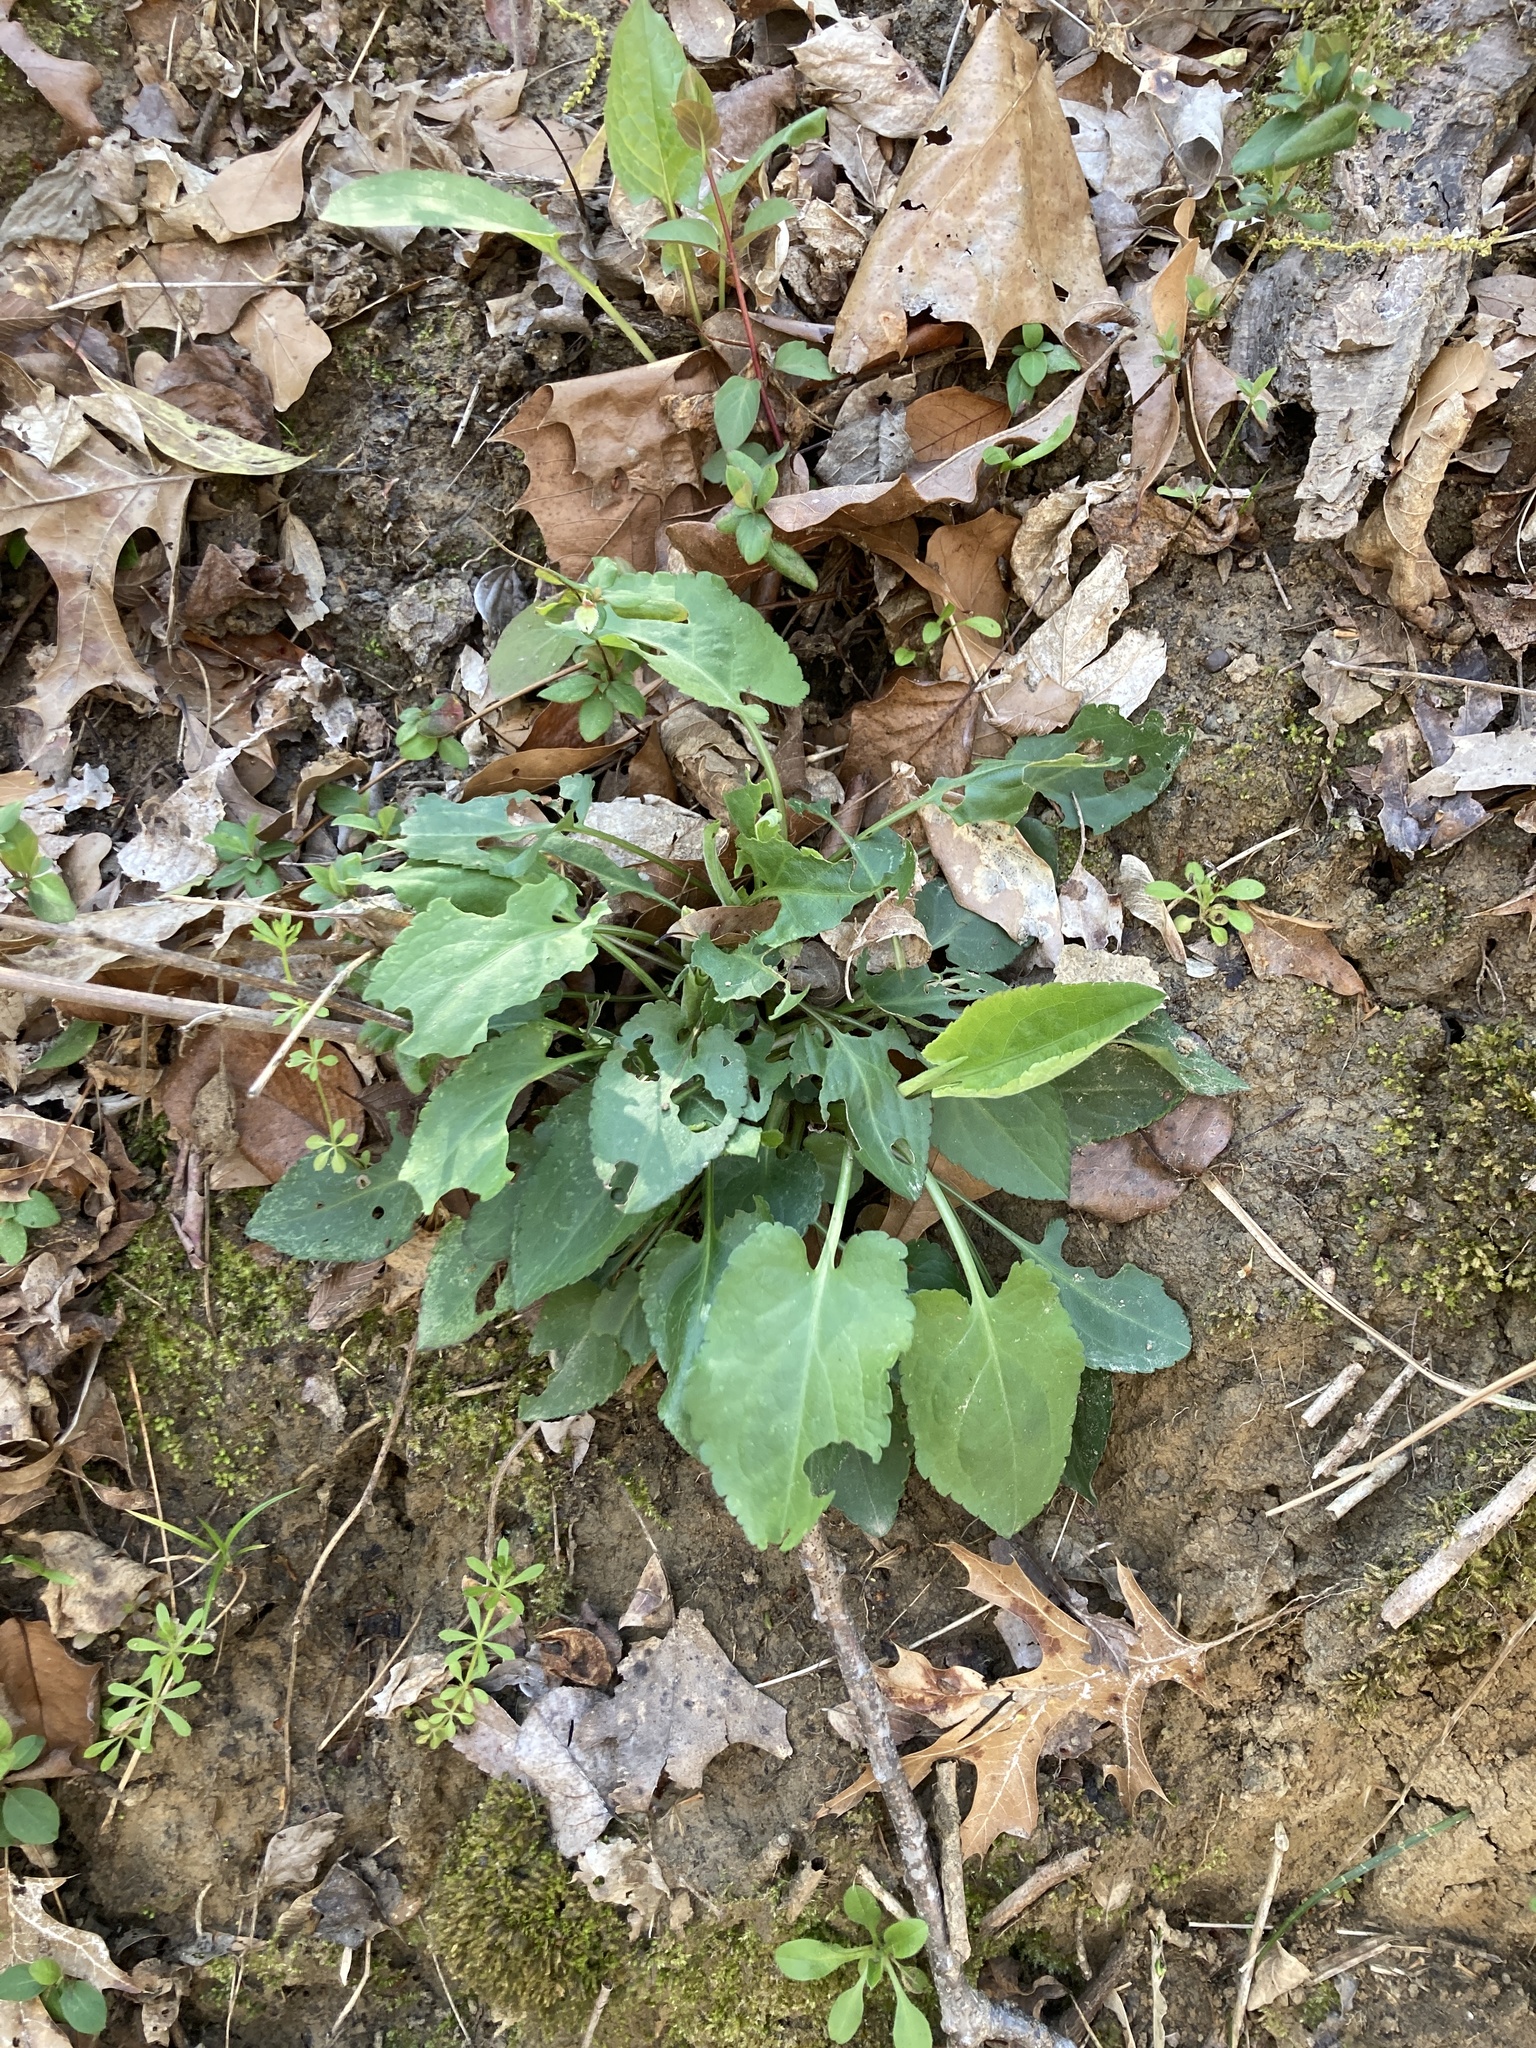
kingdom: Plantae
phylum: Tracheophyta
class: Magnoliopsida
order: Asterales
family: Asteraceae
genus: Symphyotrichum
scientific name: Symphyotrichum drummondii
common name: Drummond's aster
